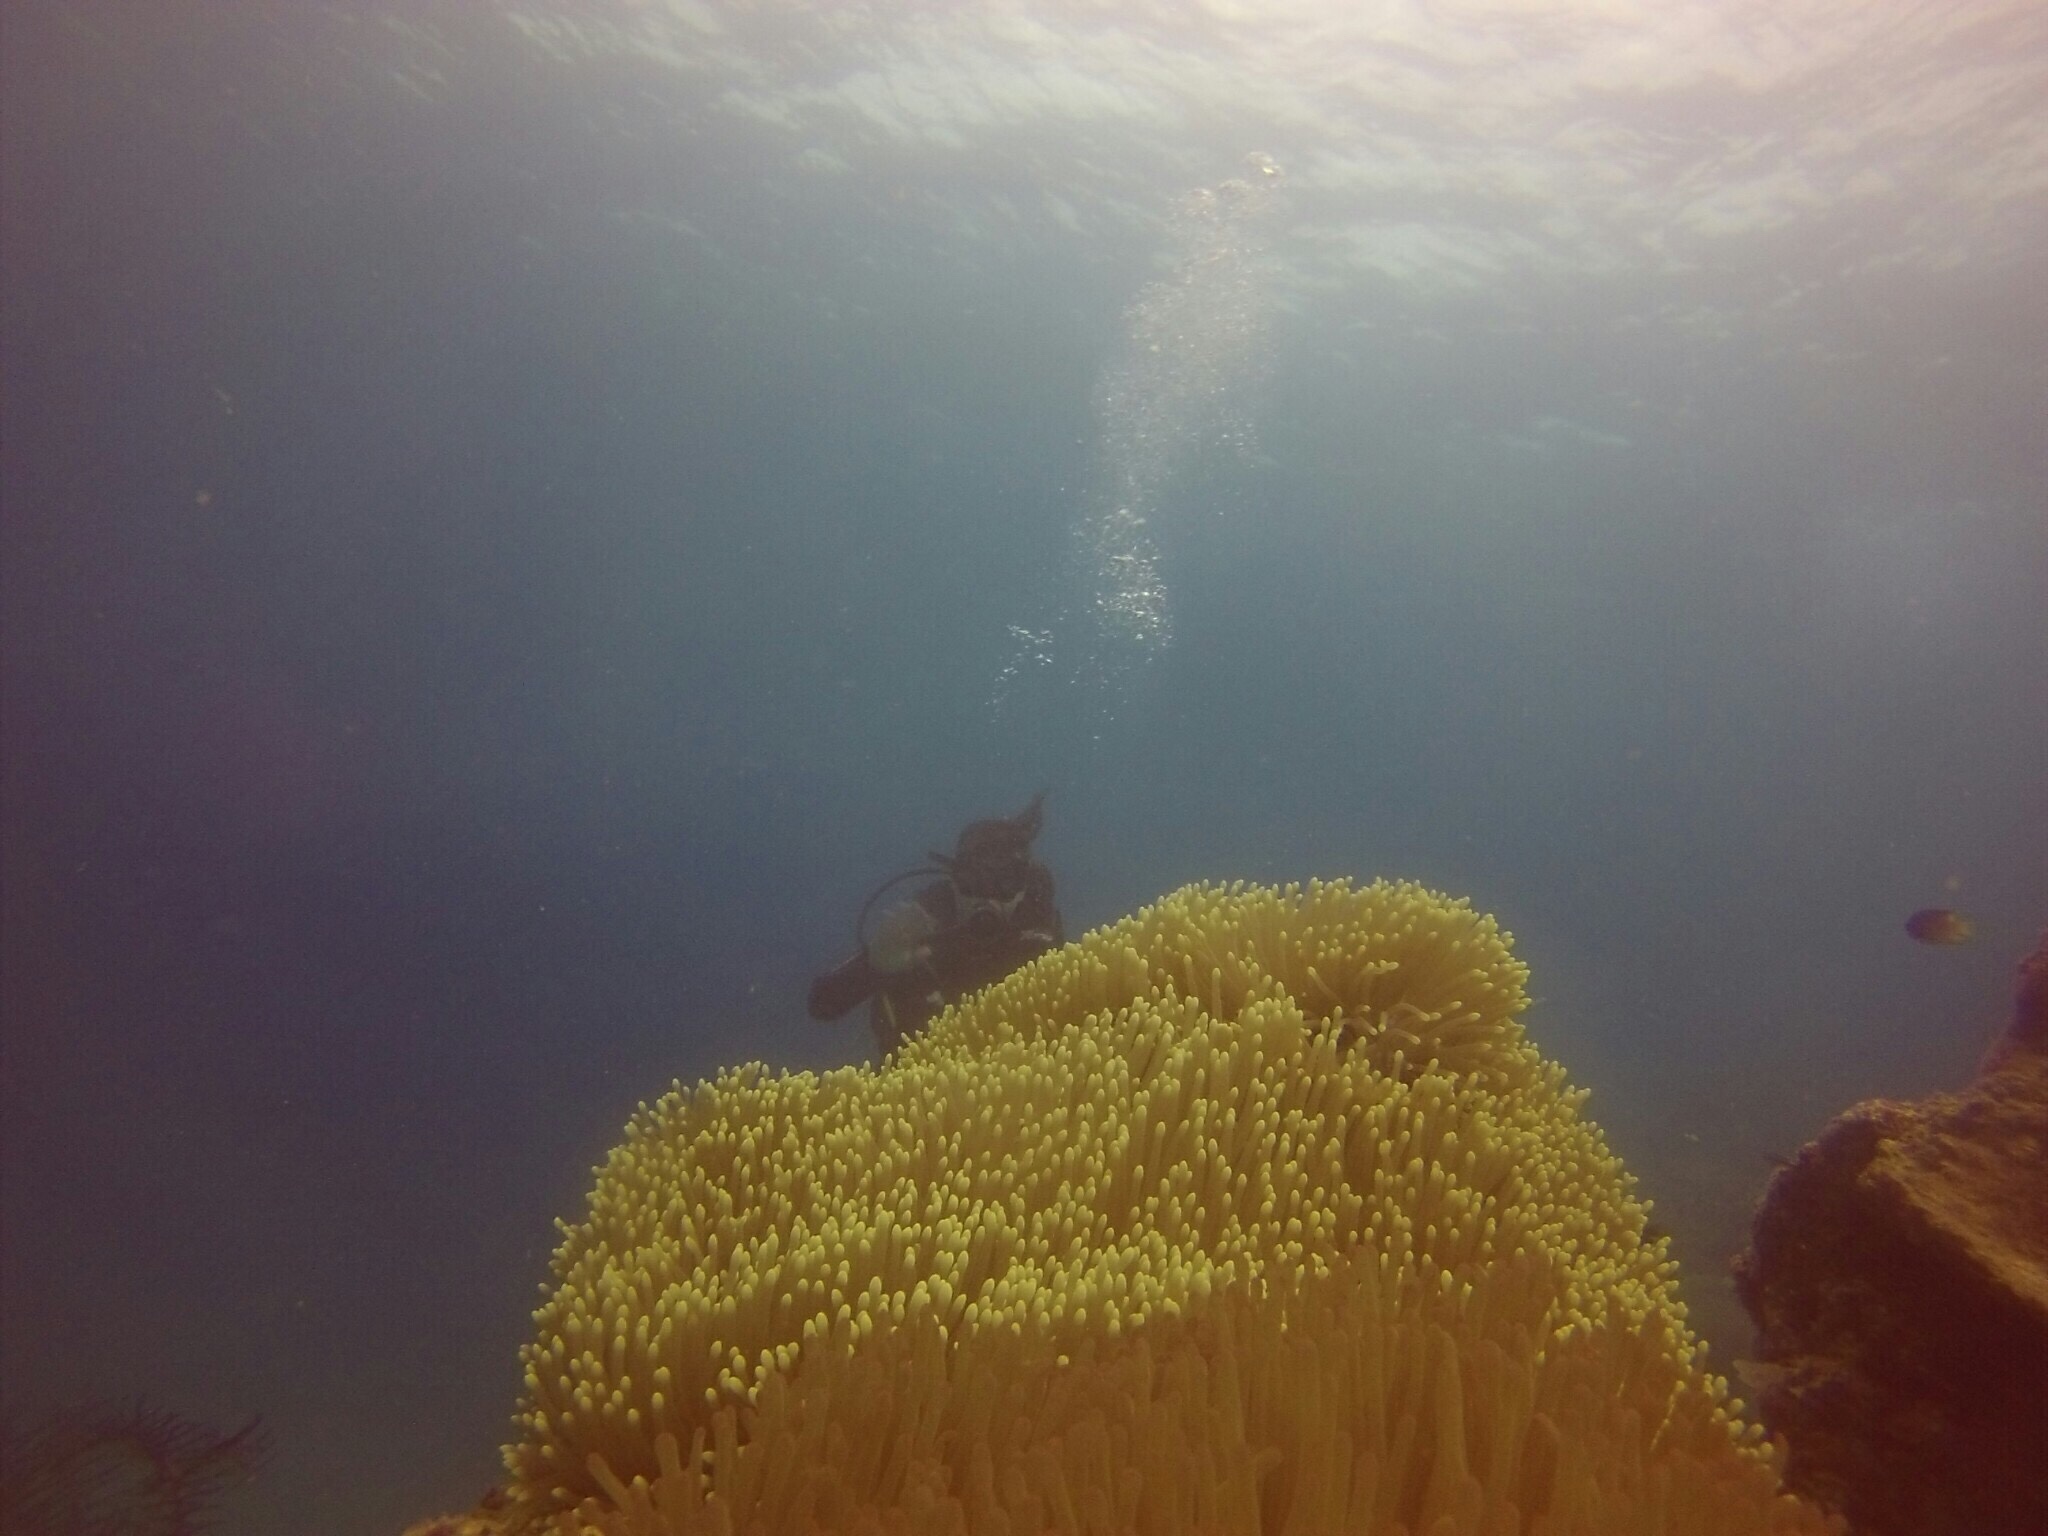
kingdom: Animalia
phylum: Cnidaria
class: Anthozoa
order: Actiniaria
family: Stichodactylidae
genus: Radianthus
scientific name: Radianthus magnifica
